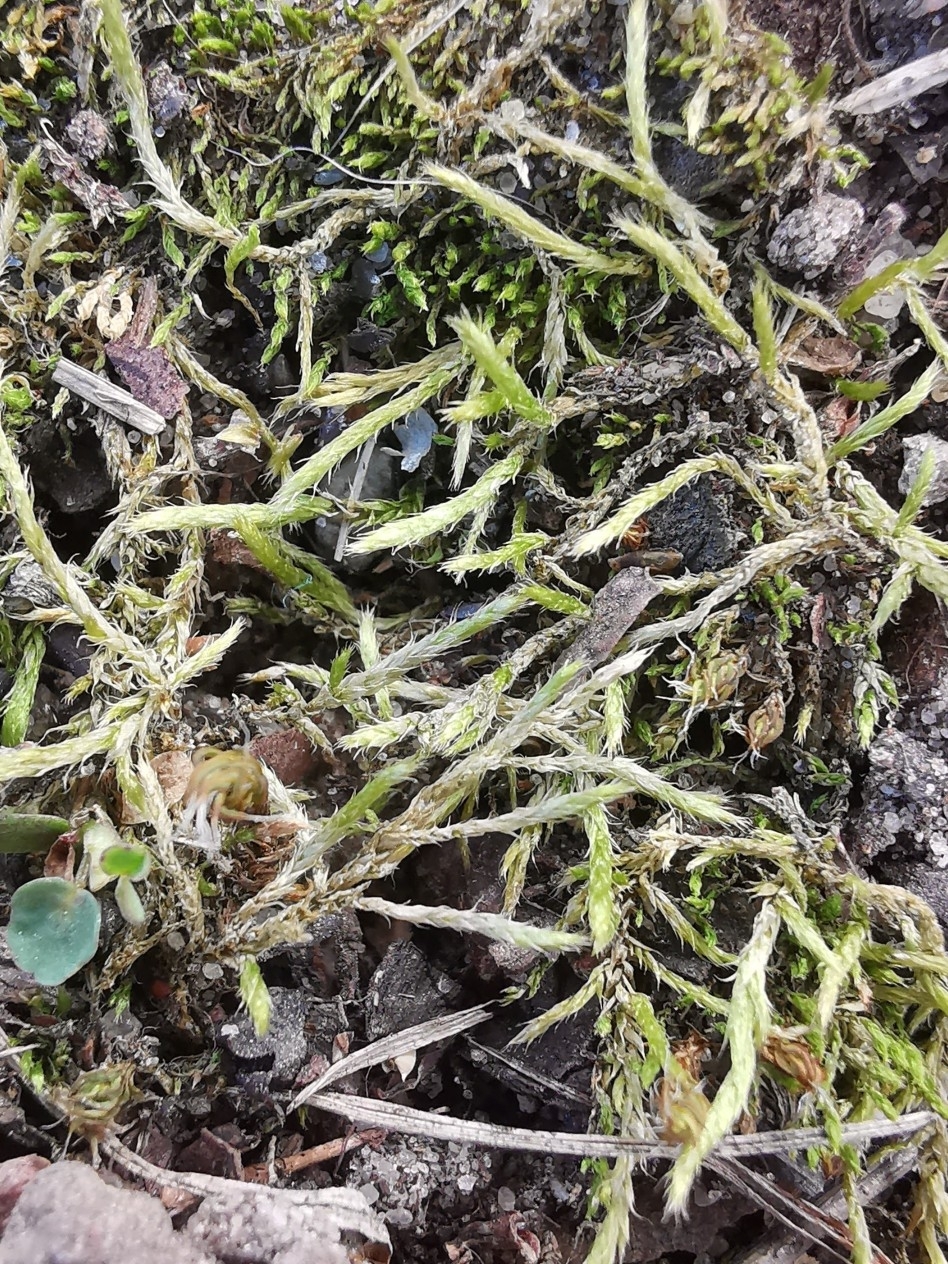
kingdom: Plantae
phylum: Bryophyta
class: Bryopsida
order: Hypnales
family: Brachytheciaceae
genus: Brachythecium
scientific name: Brachythecium albicans
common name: Whitish ragged moss
